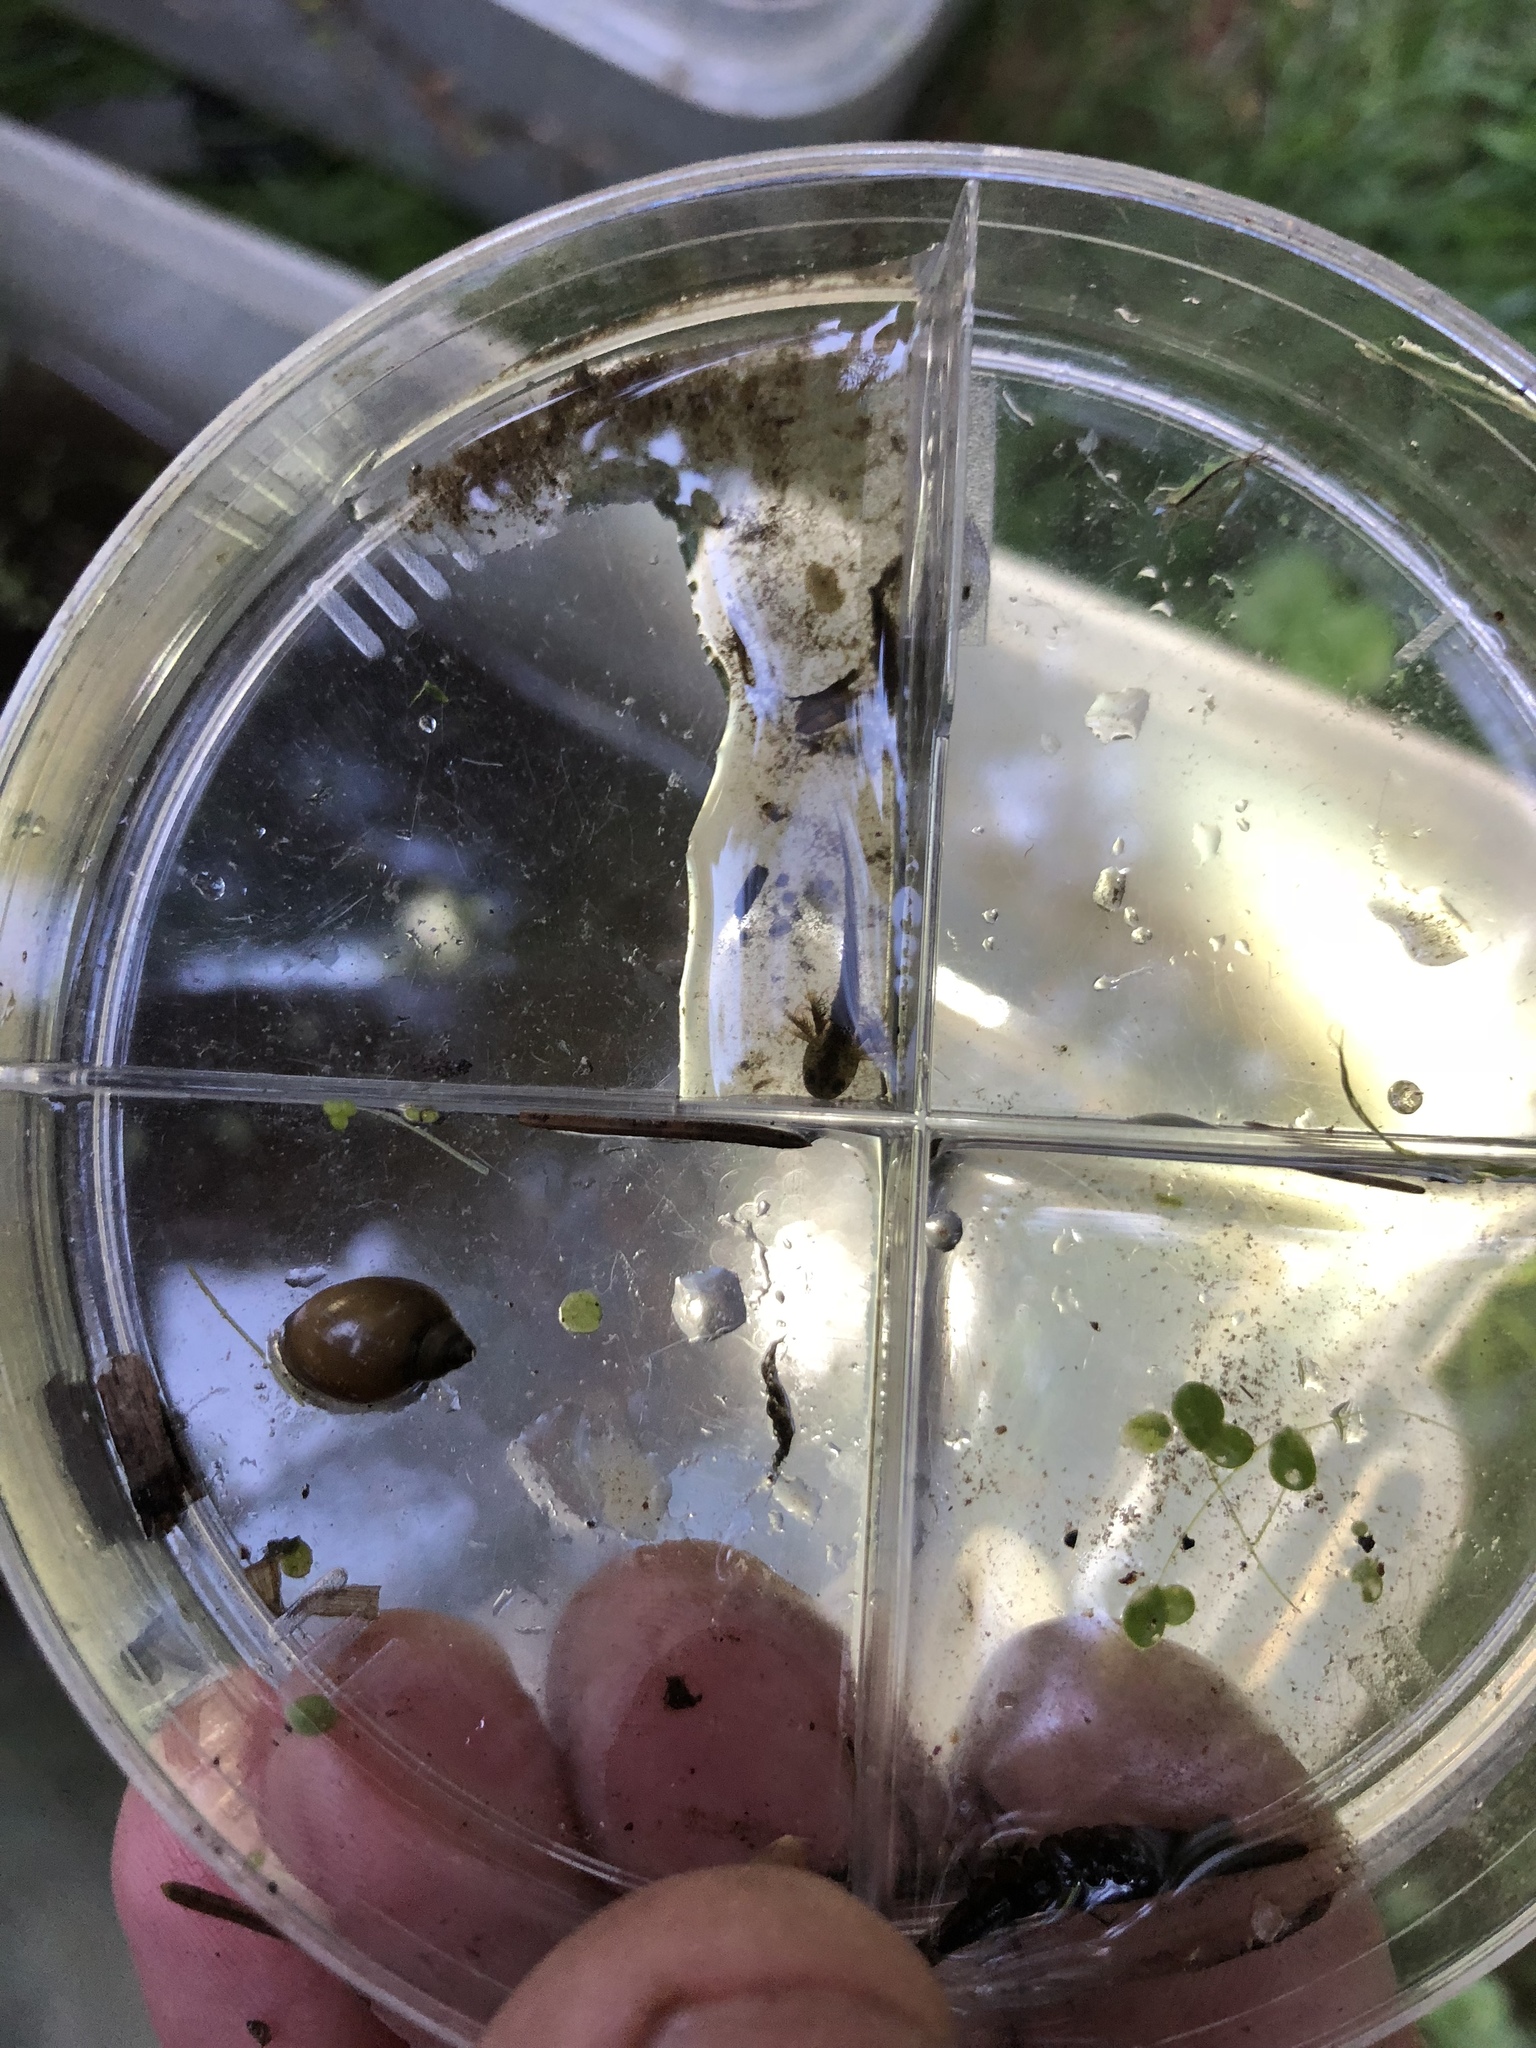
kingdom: Animalia
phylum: Chordata
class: Amphibia
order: Caudata
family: Ambystomatidae
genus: Ambystoma
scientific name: Ambystoma maculatum
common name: Spotted salamander
